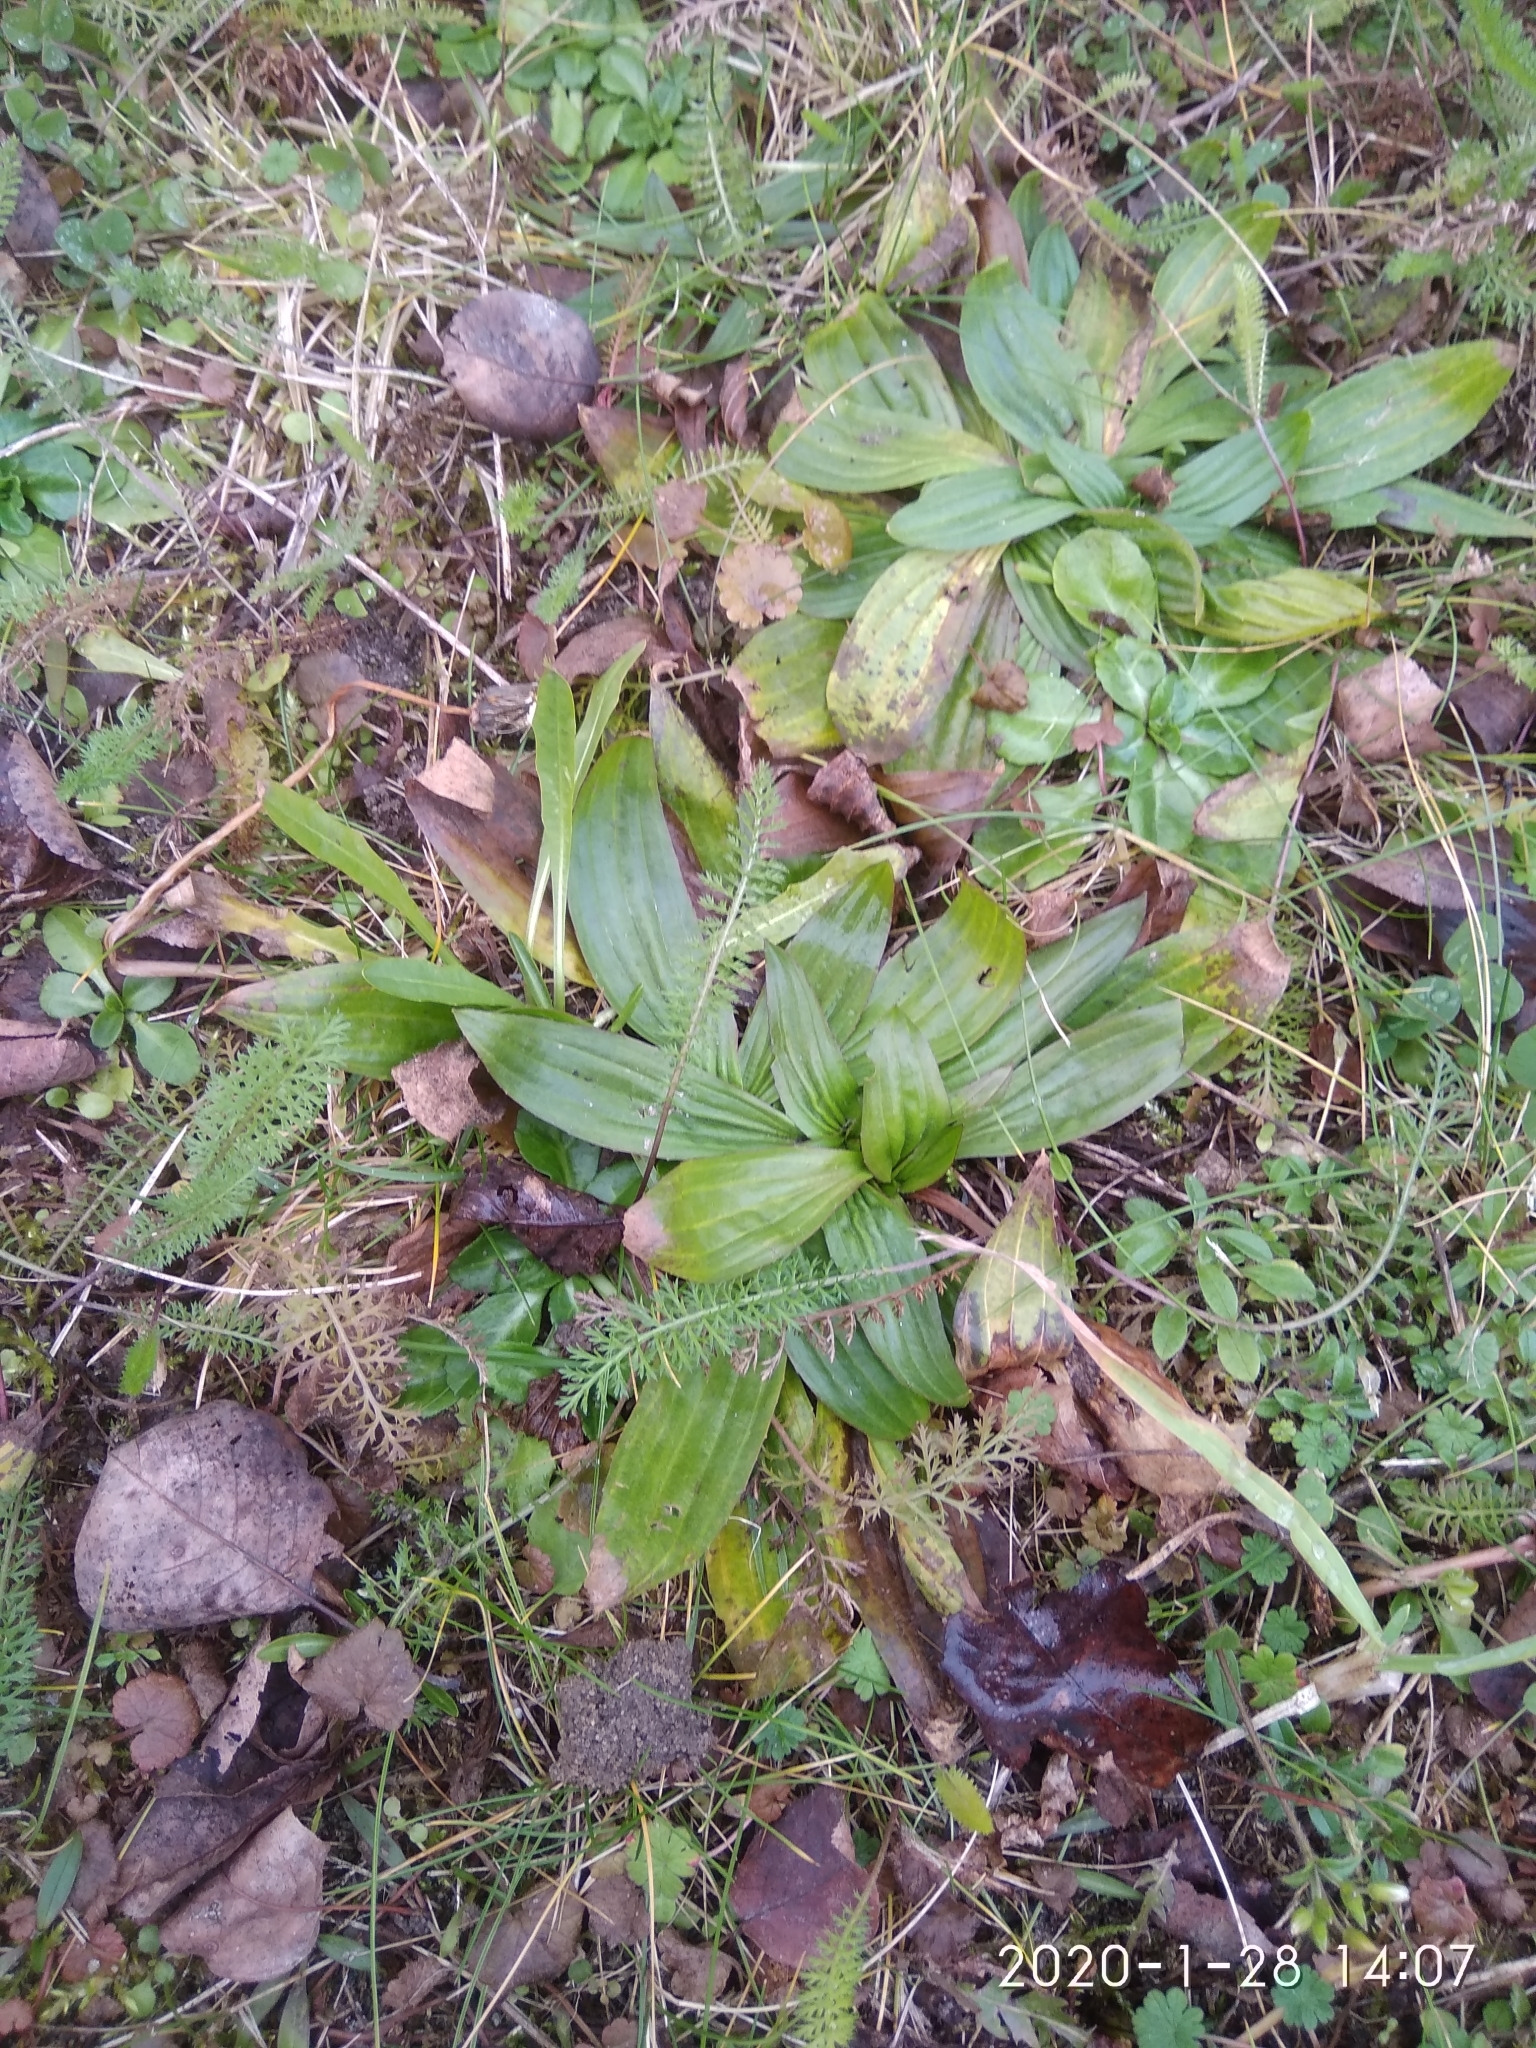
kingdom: Plantae
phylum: Tracheophyta
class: Magnoliopsida
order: Lamiales
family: Plantaginaceae
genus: Plantago
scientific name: Plantago lanceolata
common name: Ribwort plantain
